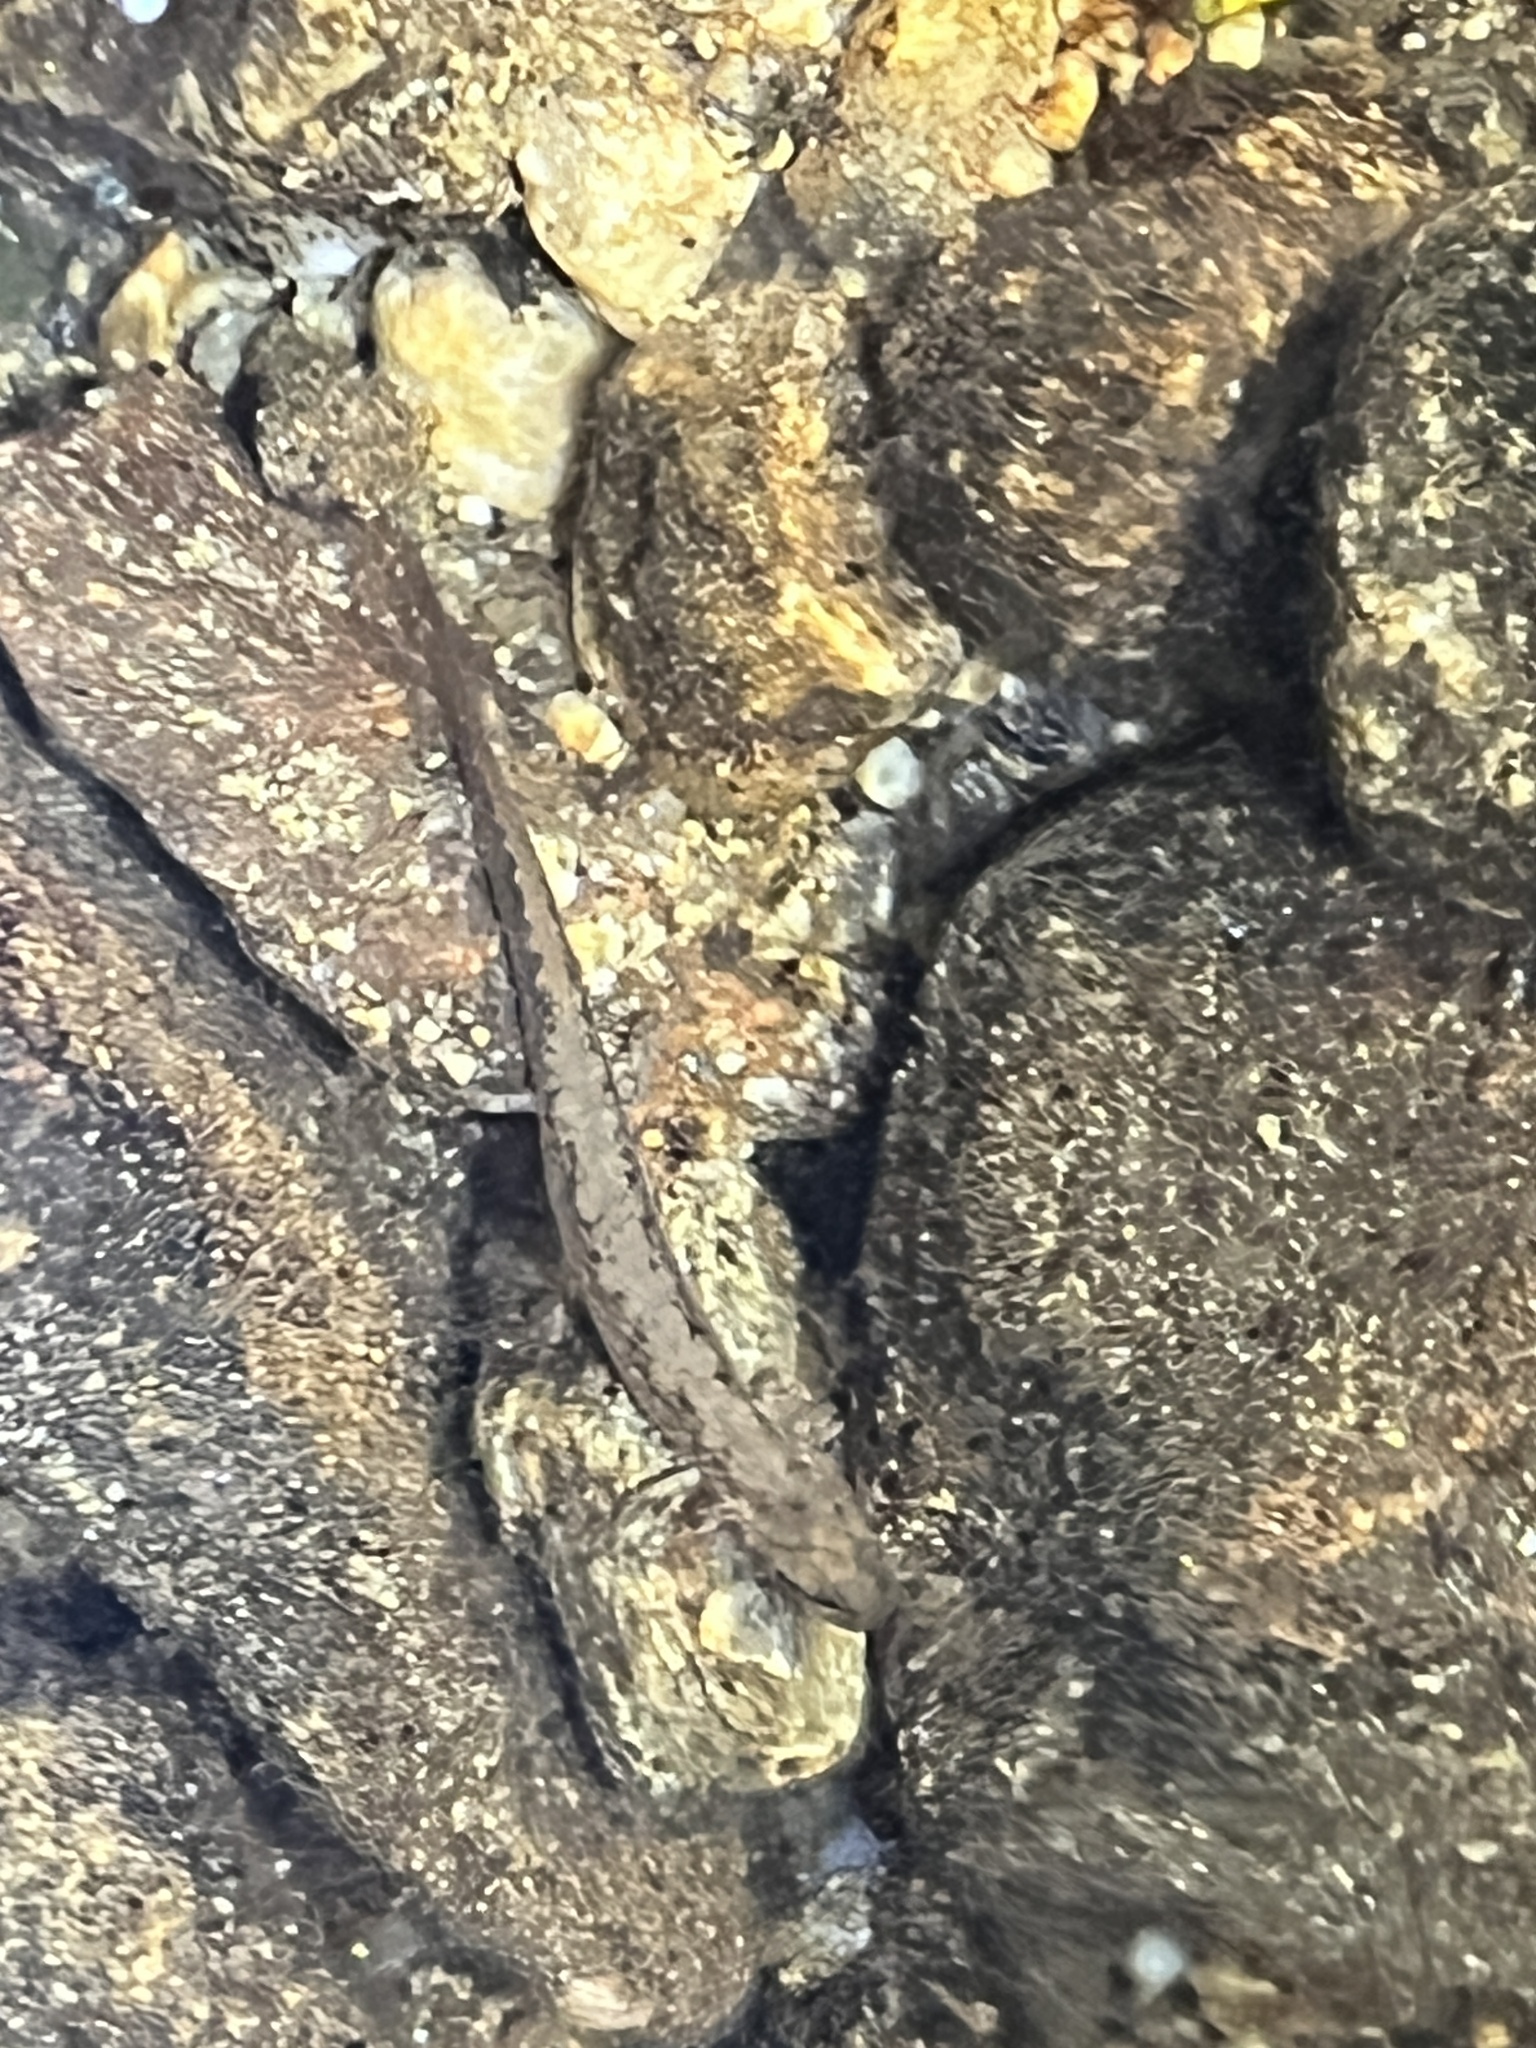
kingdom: Animalia
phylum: Chordata
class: Amphibia
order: Caudata
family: Plethodontidae
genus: Eurycea
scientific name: Eurycea bislineata
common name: Northern two-lined salamander
